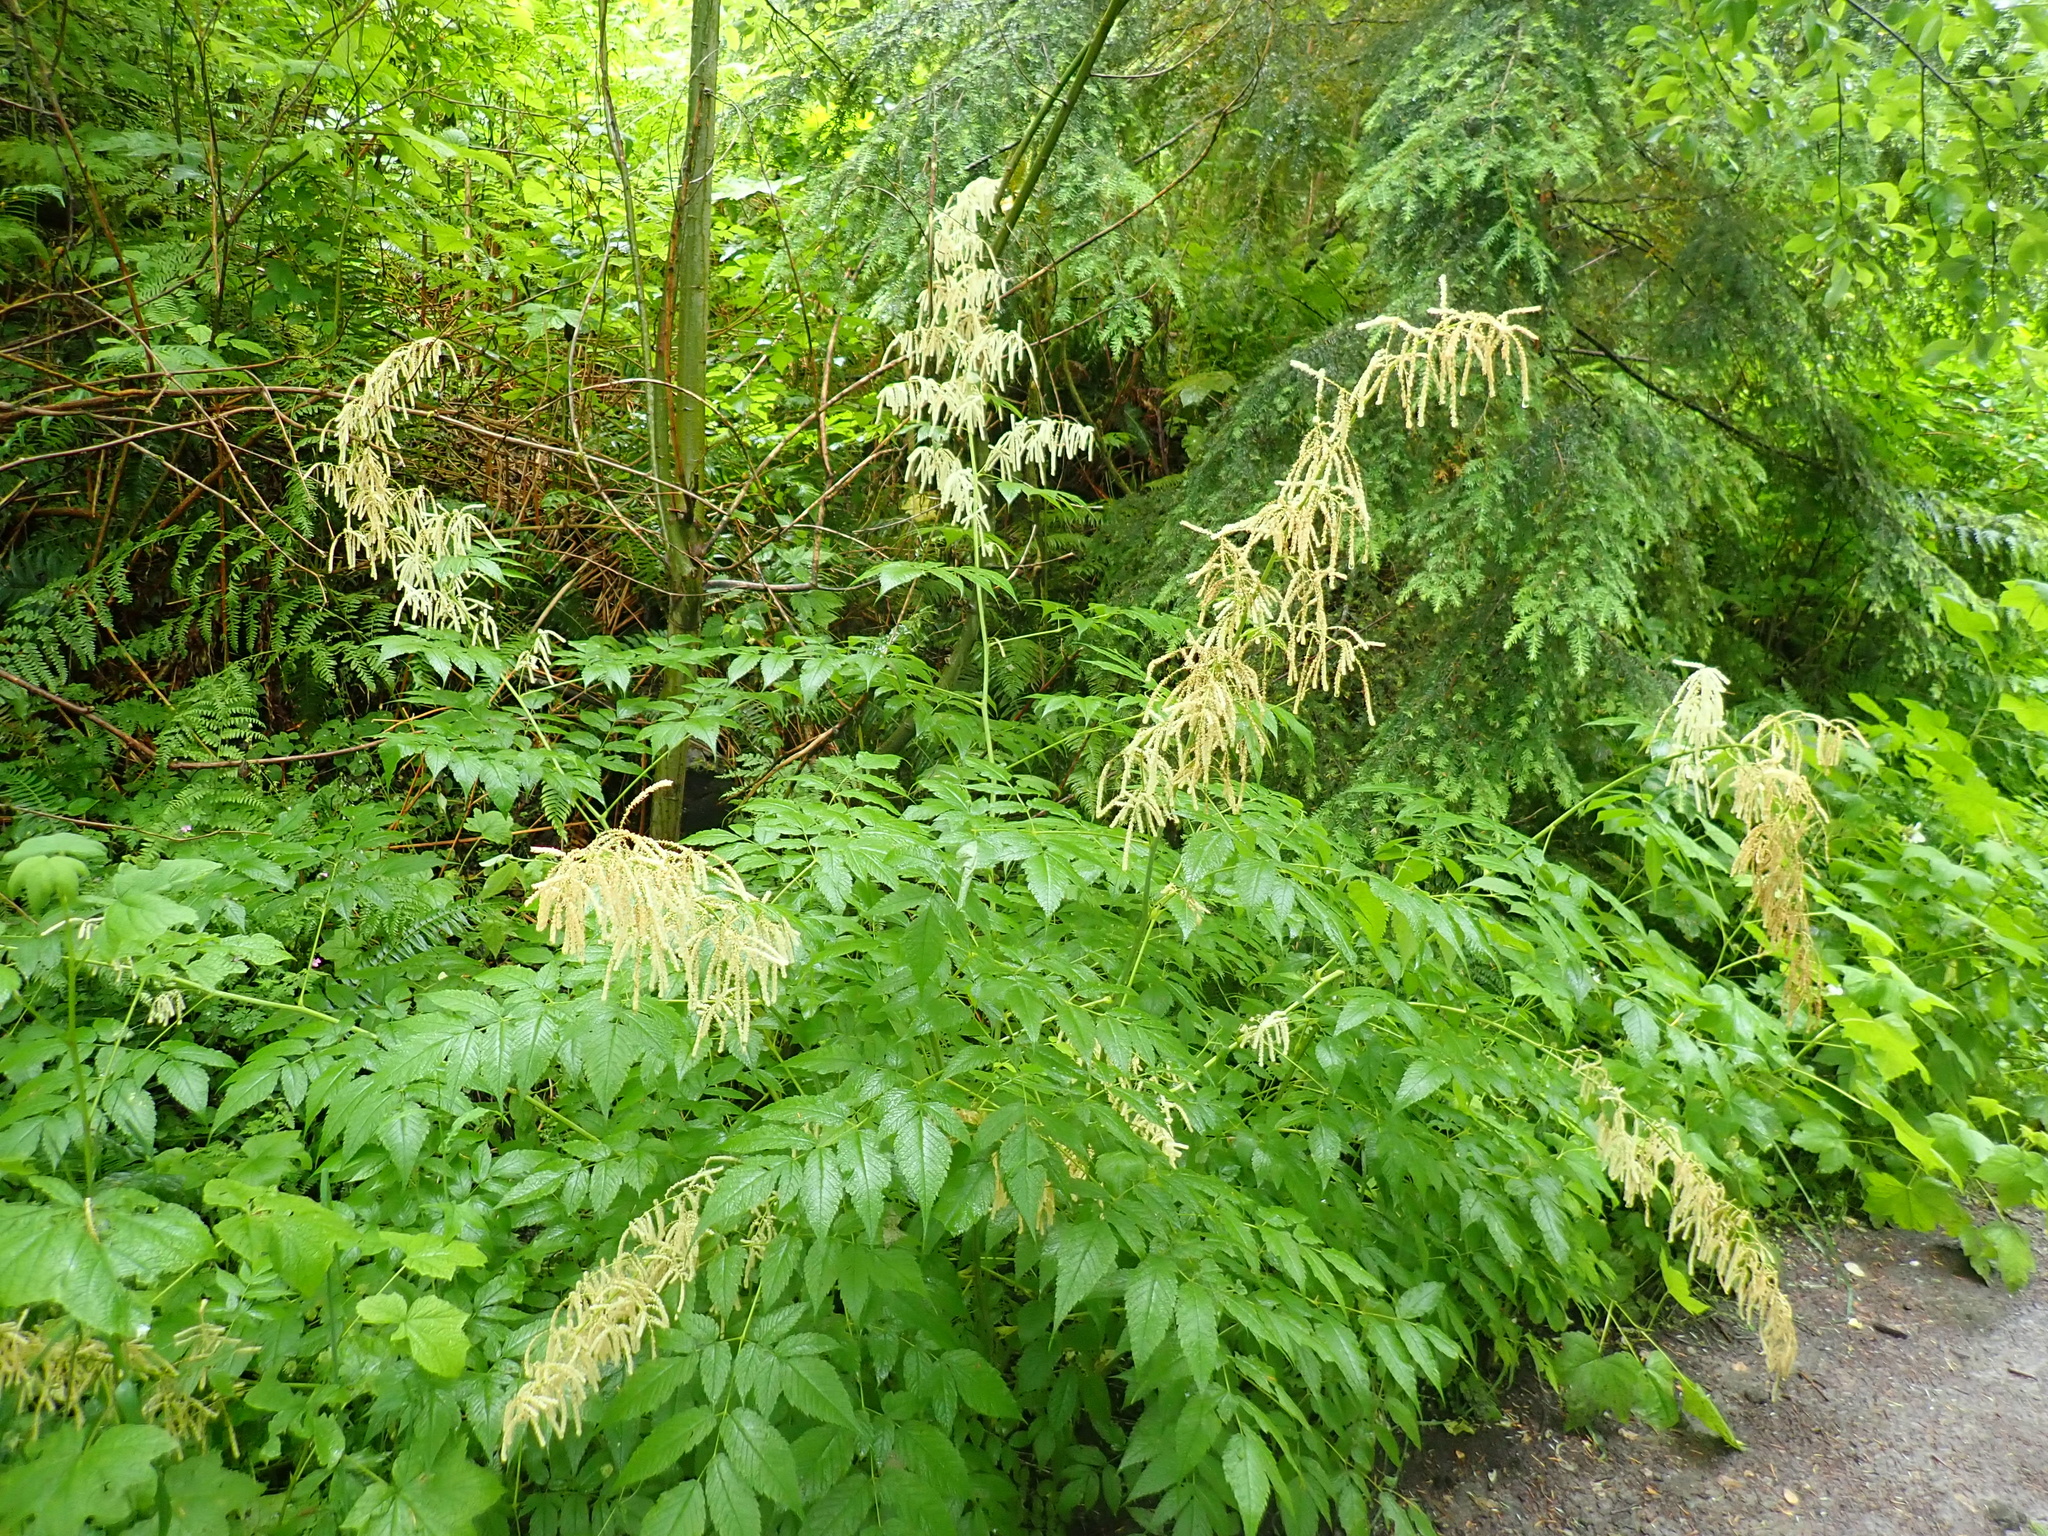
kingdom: Plantae
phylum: Tracheophyta
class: Magnoliopsida
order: Rosales
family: Rosaceae
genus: Aruncus
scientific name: Aruncus dioicus
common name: Buck's-beard
